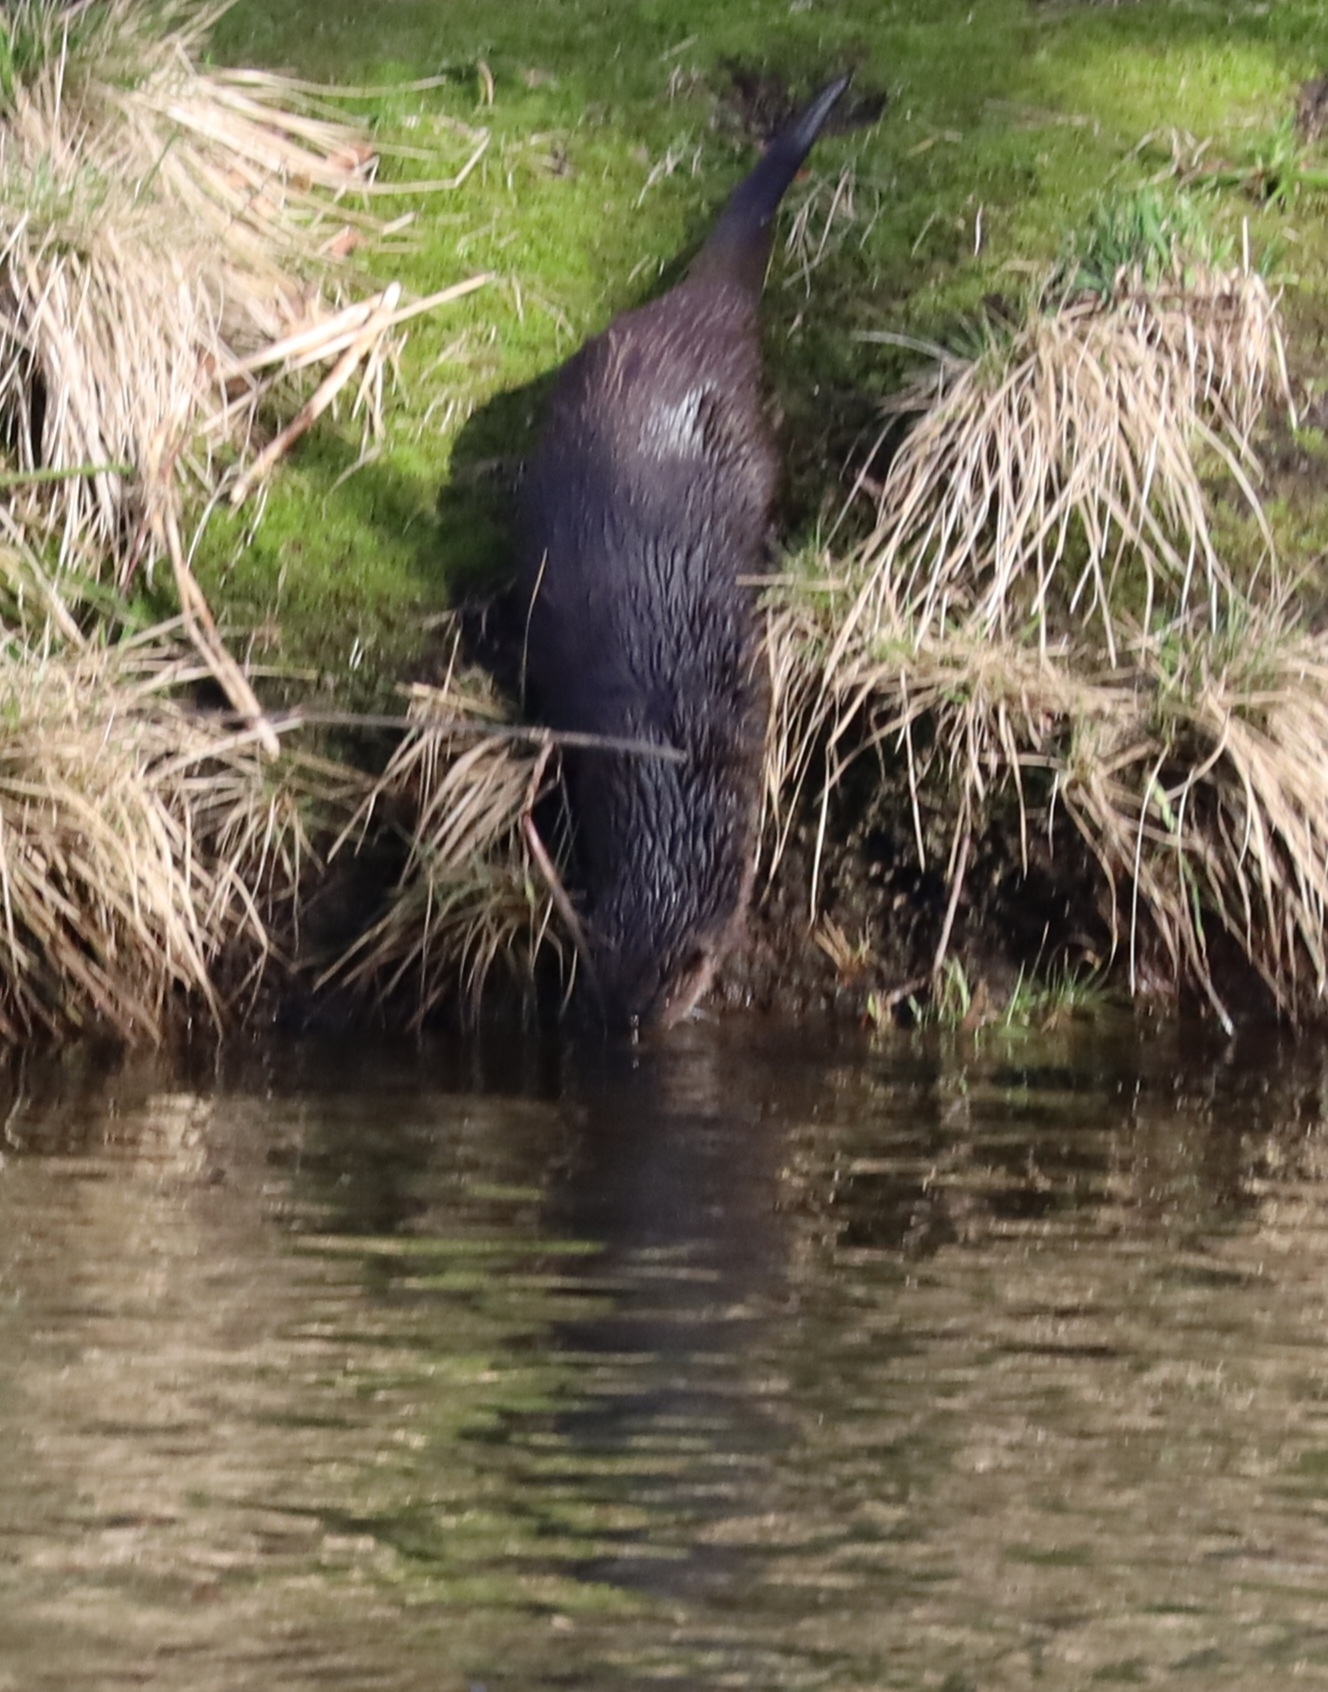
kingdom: Animalia
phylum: Chordata
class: Mammalia
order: Carnivora
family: Mustelidae
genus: Lutra
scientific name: Lutra lutra
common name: European otter
